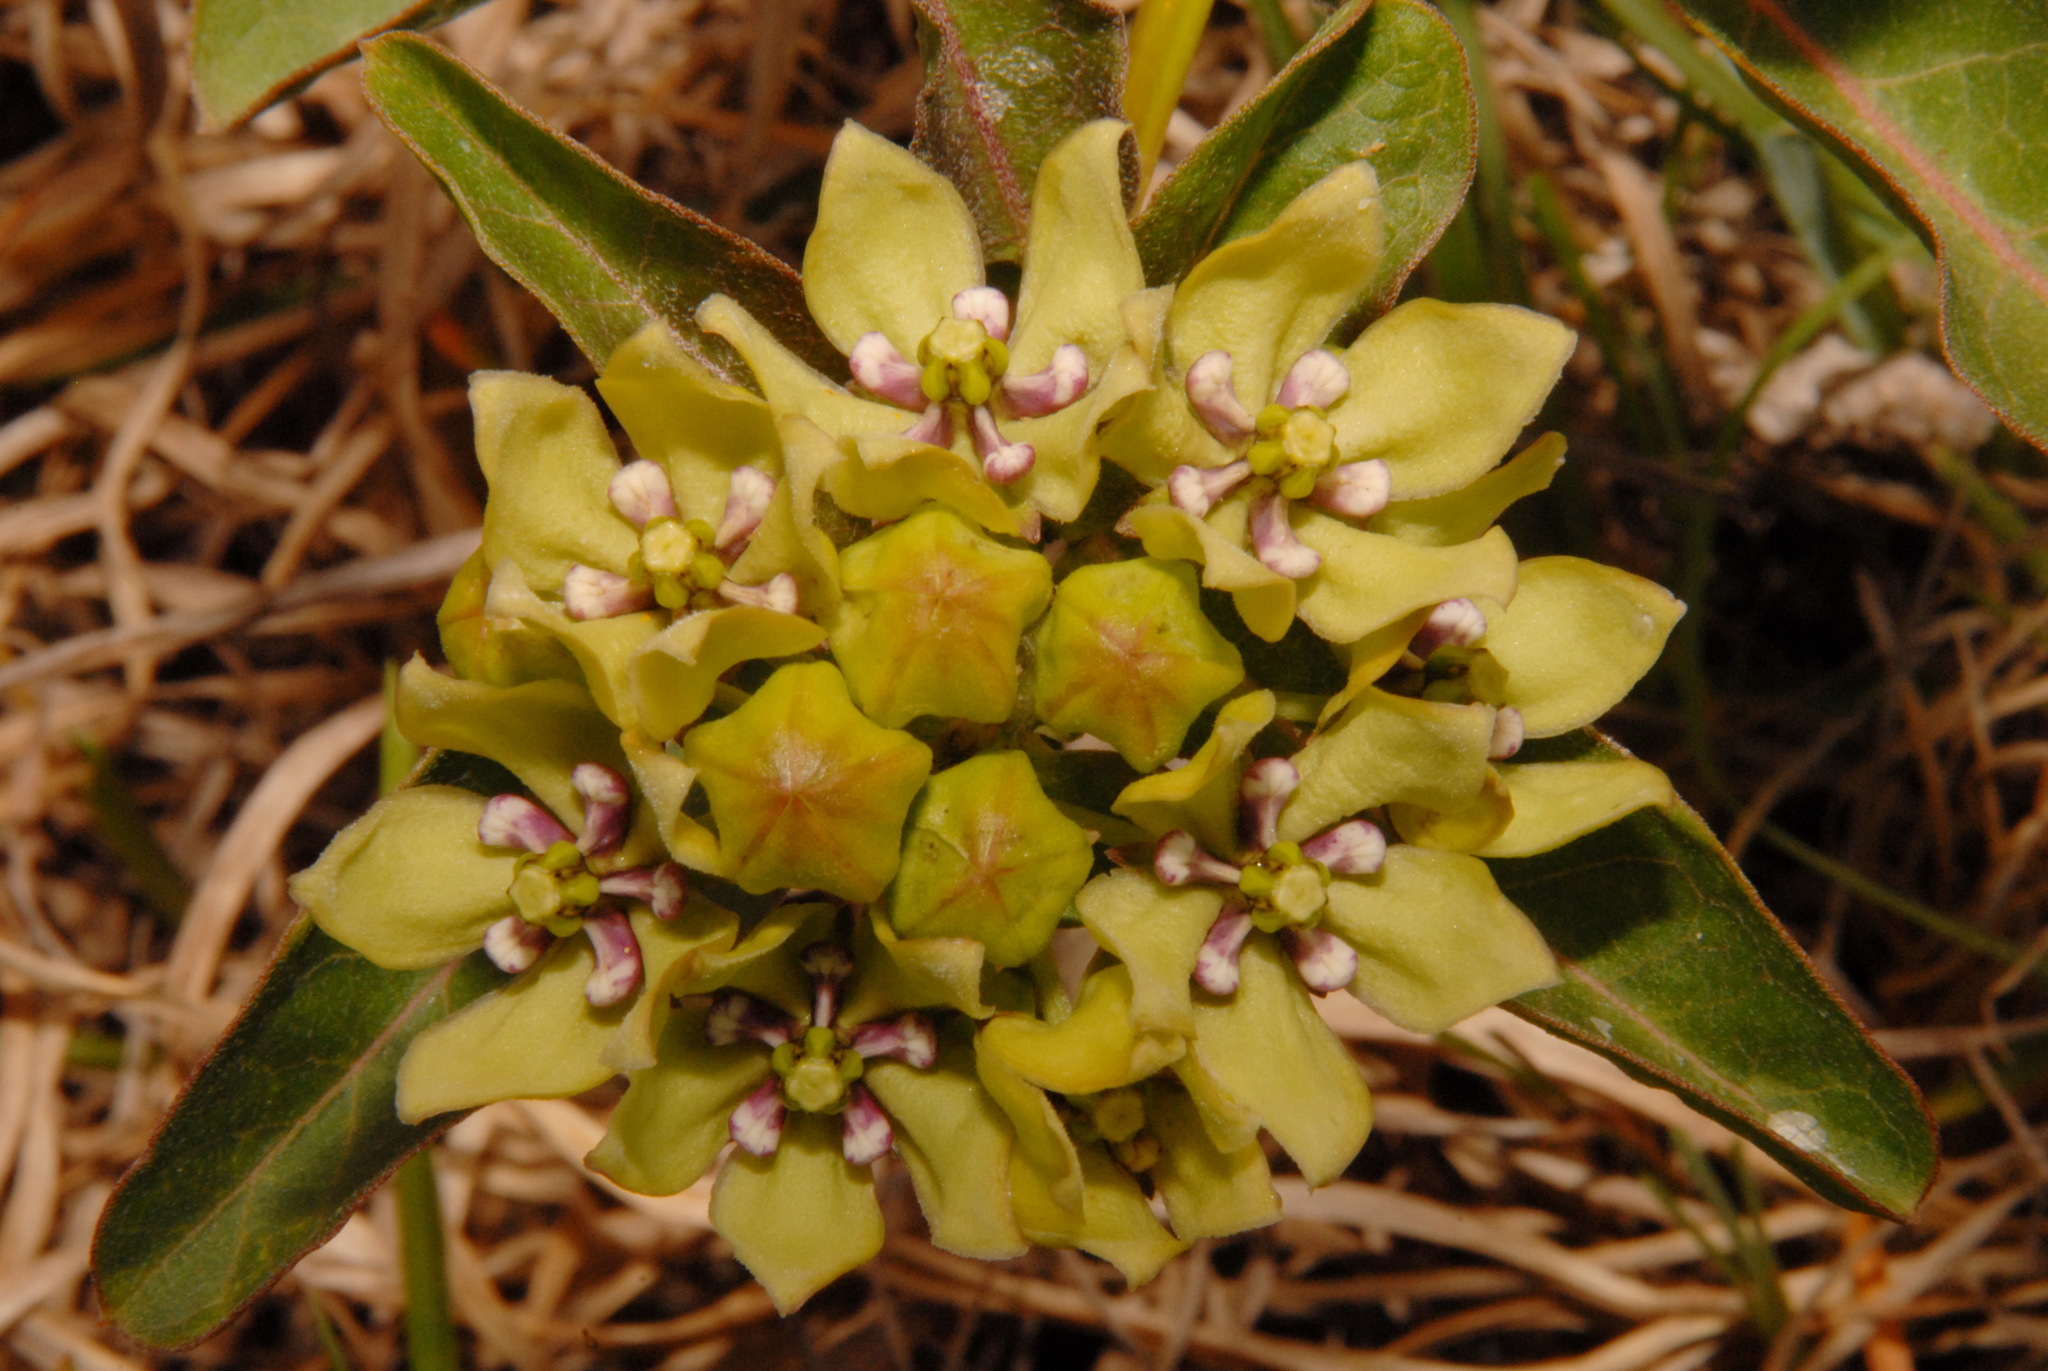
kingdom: Plantae
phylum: Tracheophyta
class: Magnoliopsida
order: Gentianales
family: Apocynaceae
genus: Asclepias
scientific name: Asclepias viridis
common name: Antelope-horns
